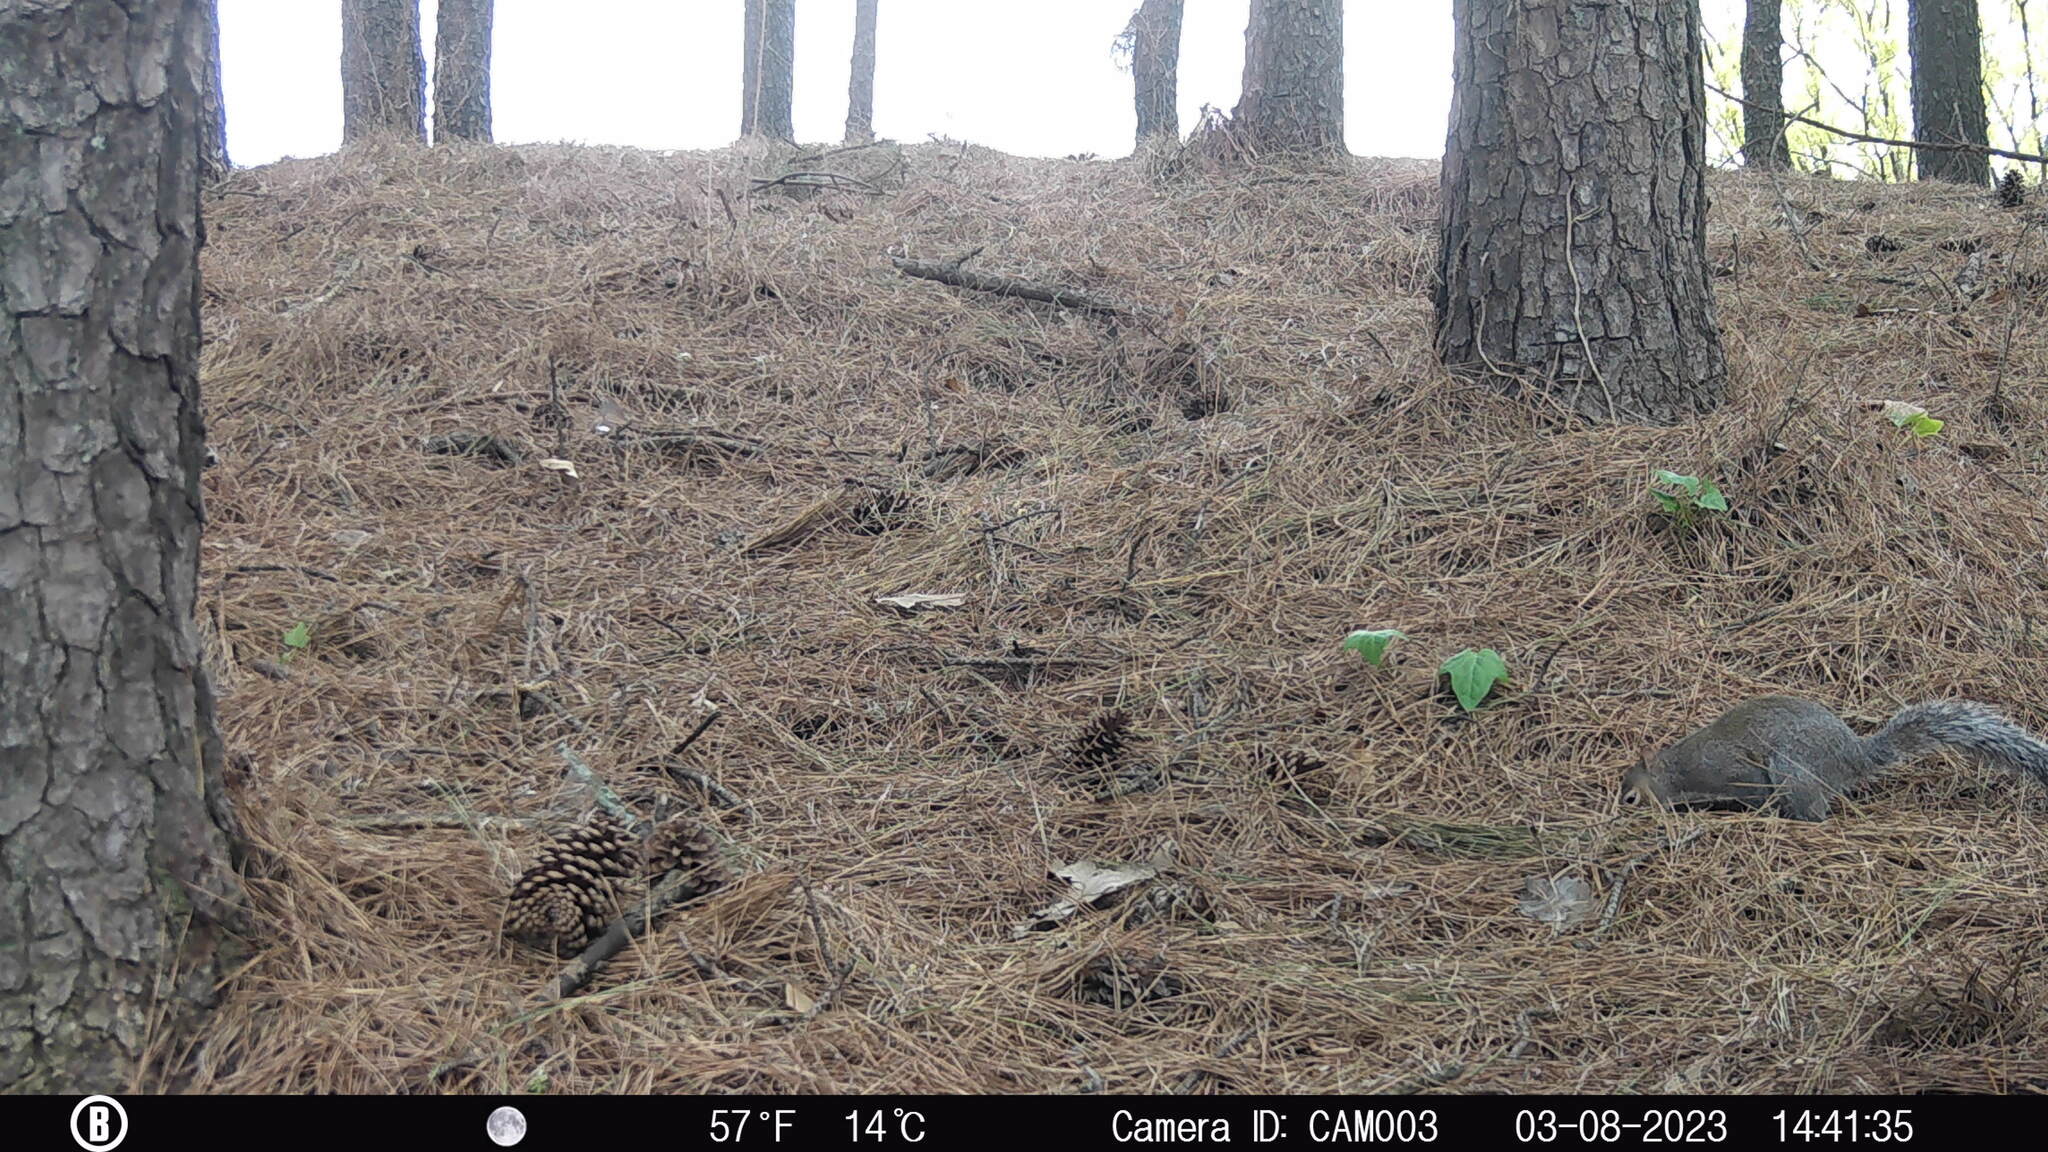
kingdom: Animalia
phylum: Chordata
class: Mammalia
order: Rodentia
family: Sciuridae
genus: Sciurus
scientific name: Sciurus carolinensis
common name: Eastern gray squirrel
